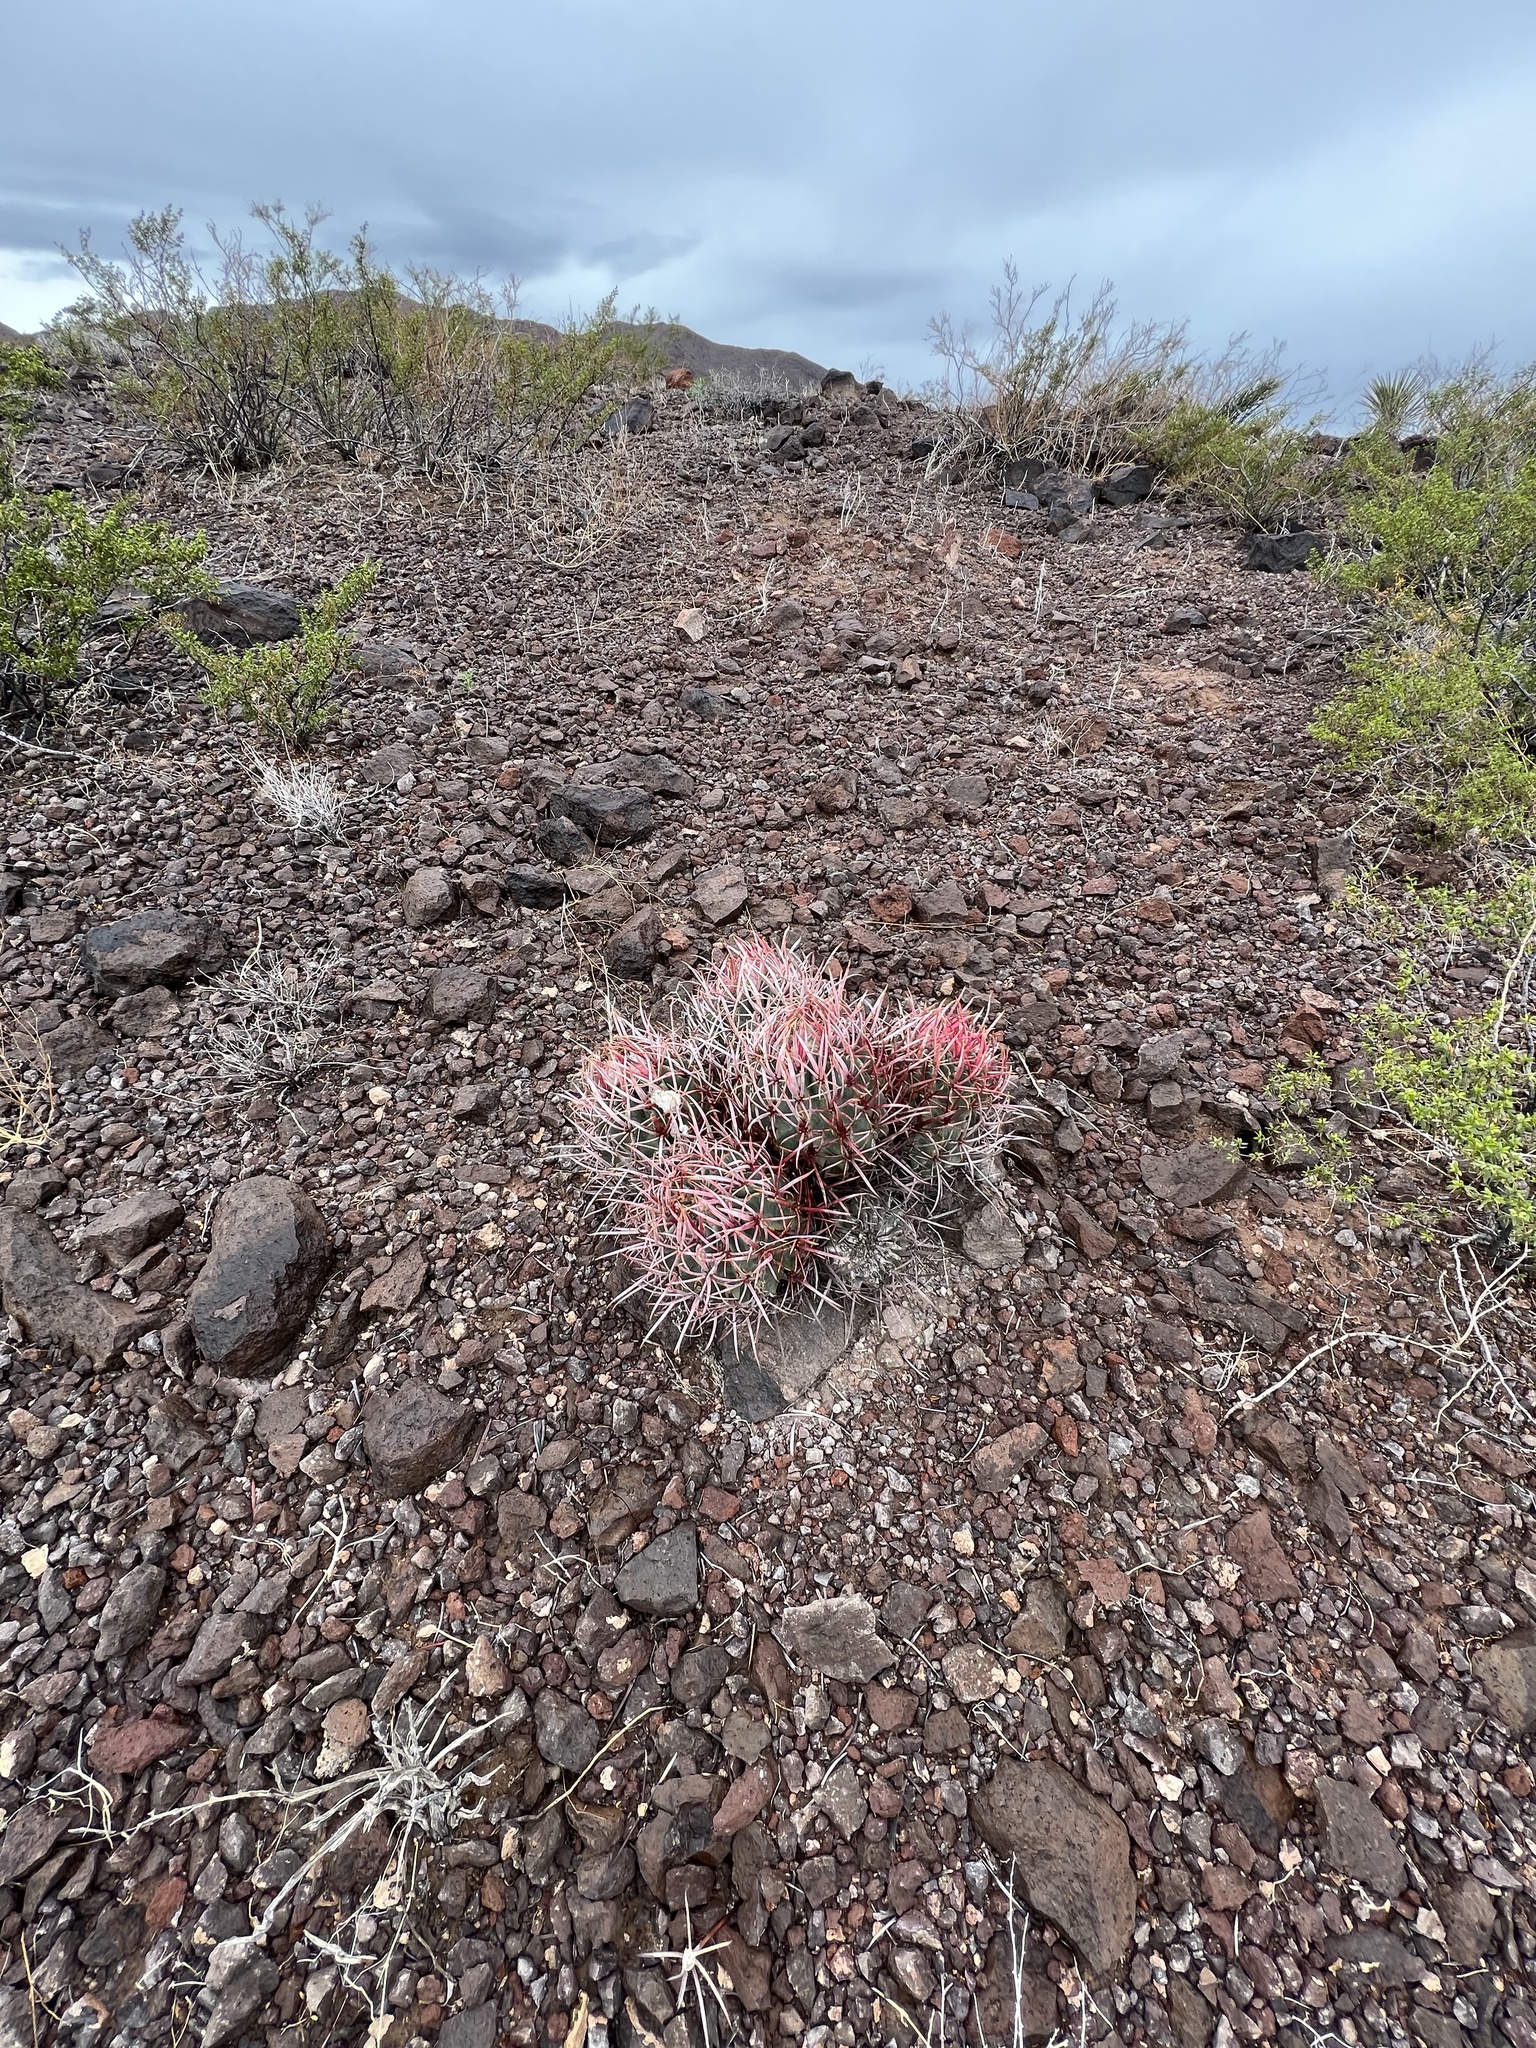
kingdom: Plantae
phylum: Tracheophyta
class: Magnoliopsida
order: Caryophyllales
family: Cactaceae
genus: Echinocactus
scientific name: Echinocactus polycephalus
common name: Cottontop cactus
